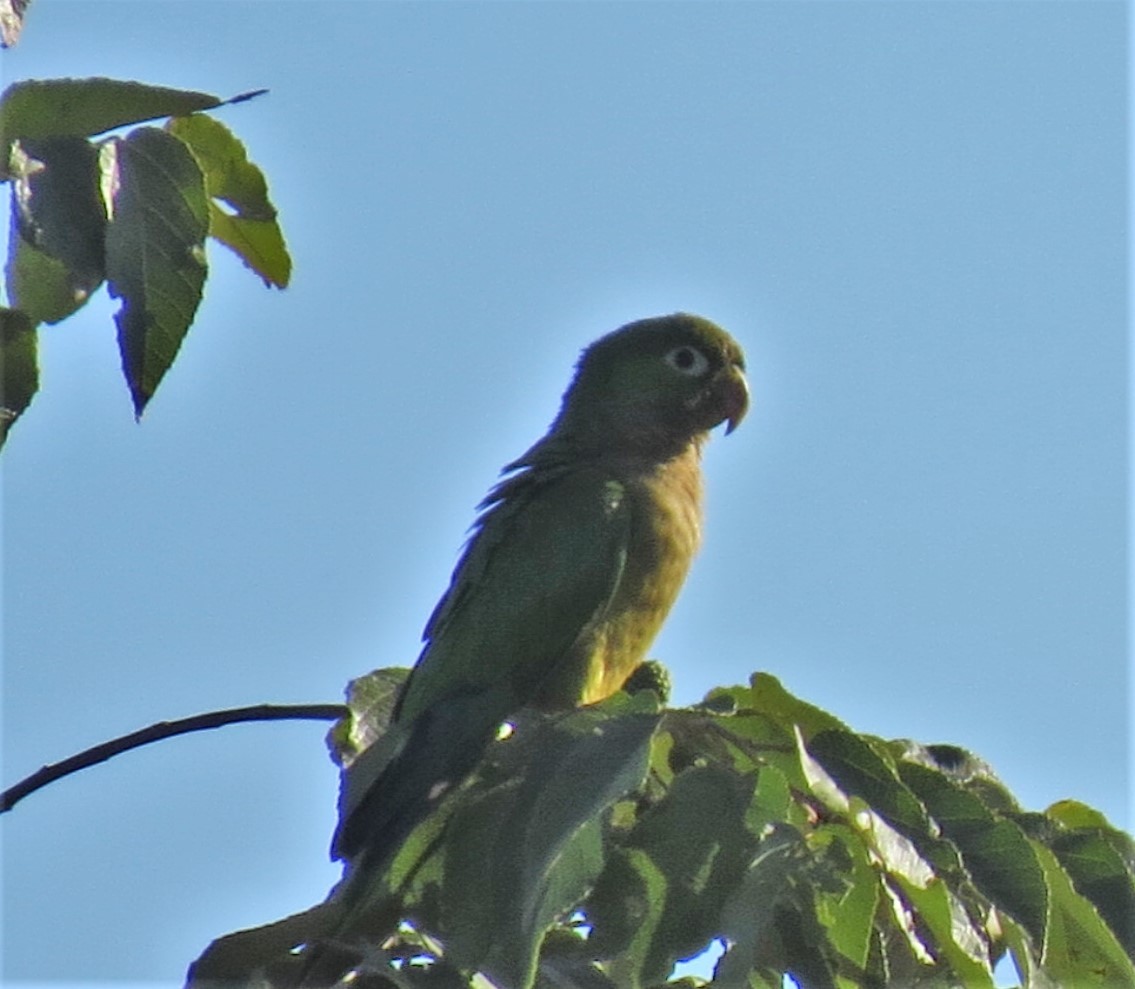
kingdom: Animalia
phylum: Chordata
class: Aves
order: Psittaciformes
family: Psittacidae
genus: Aratinga
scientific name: Aratinga nana
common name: Olive-throated parakeet
